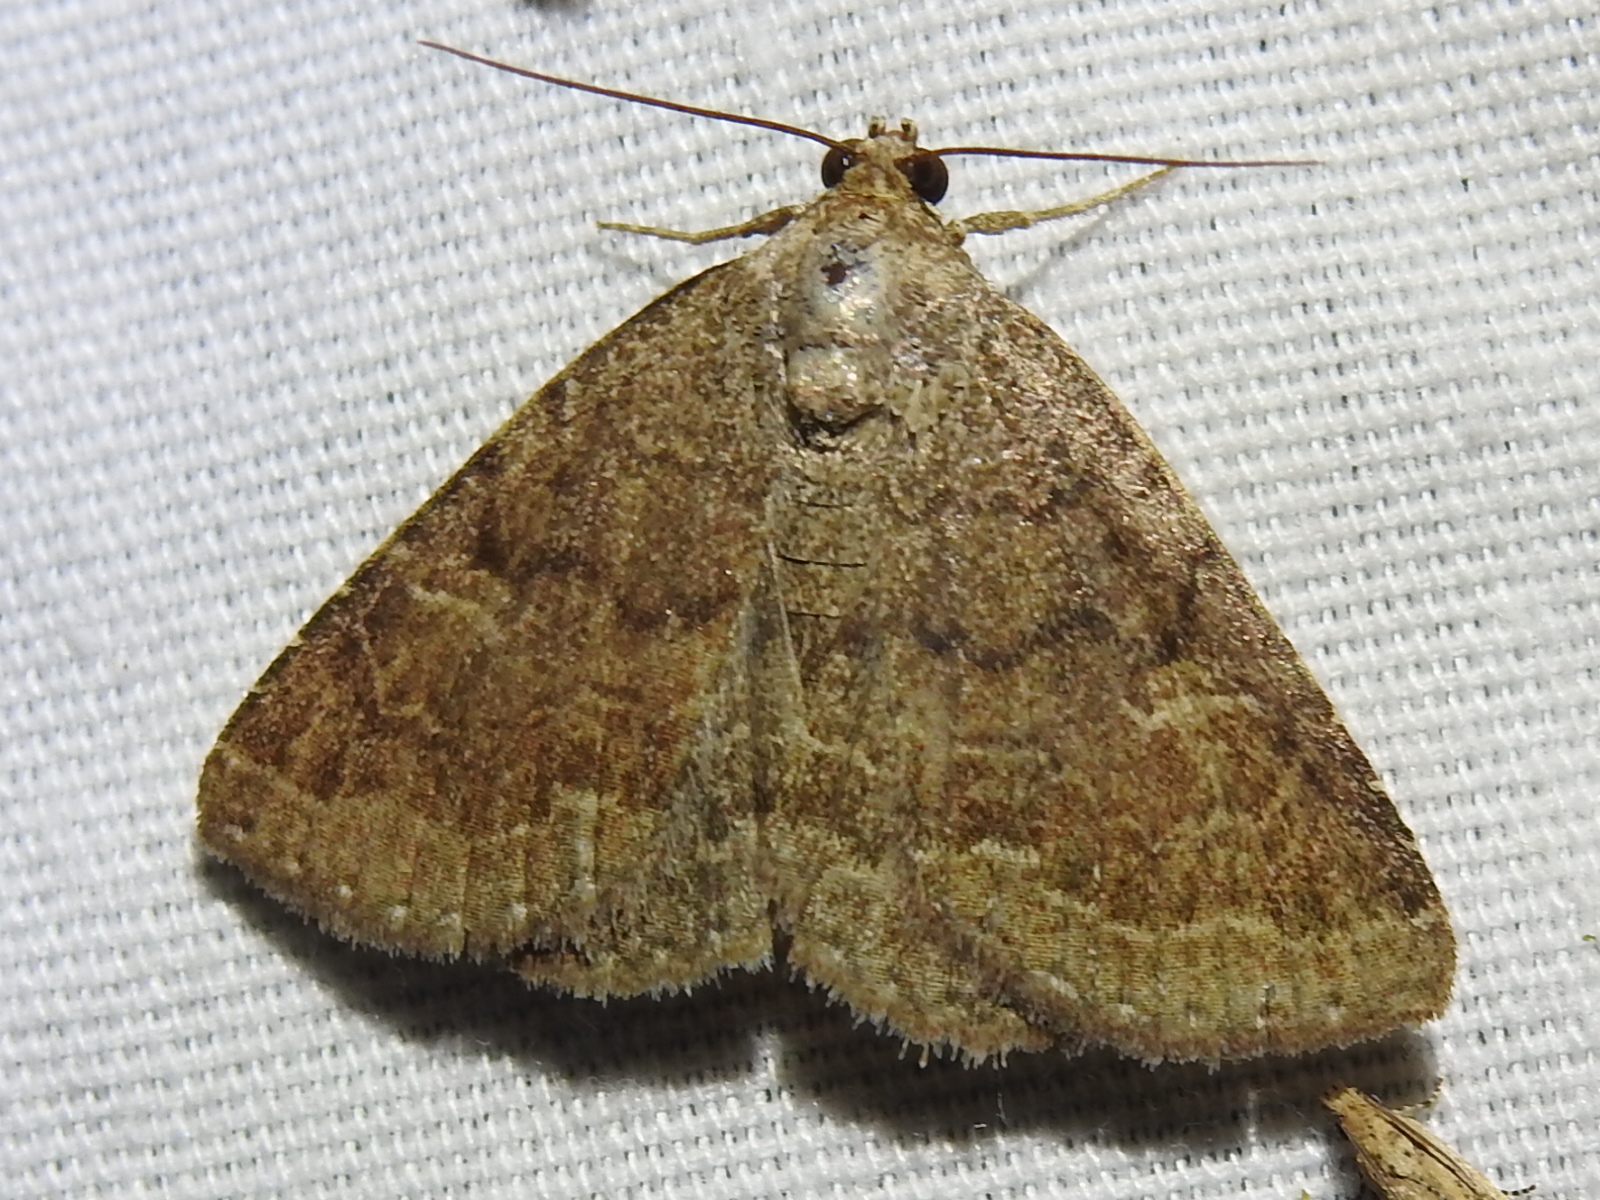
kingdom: Animalia
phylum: Arthropoda
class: Insecta
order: Lepidoptera
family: Erebidae
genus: Eubolina
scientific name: Eubolina impartialis
